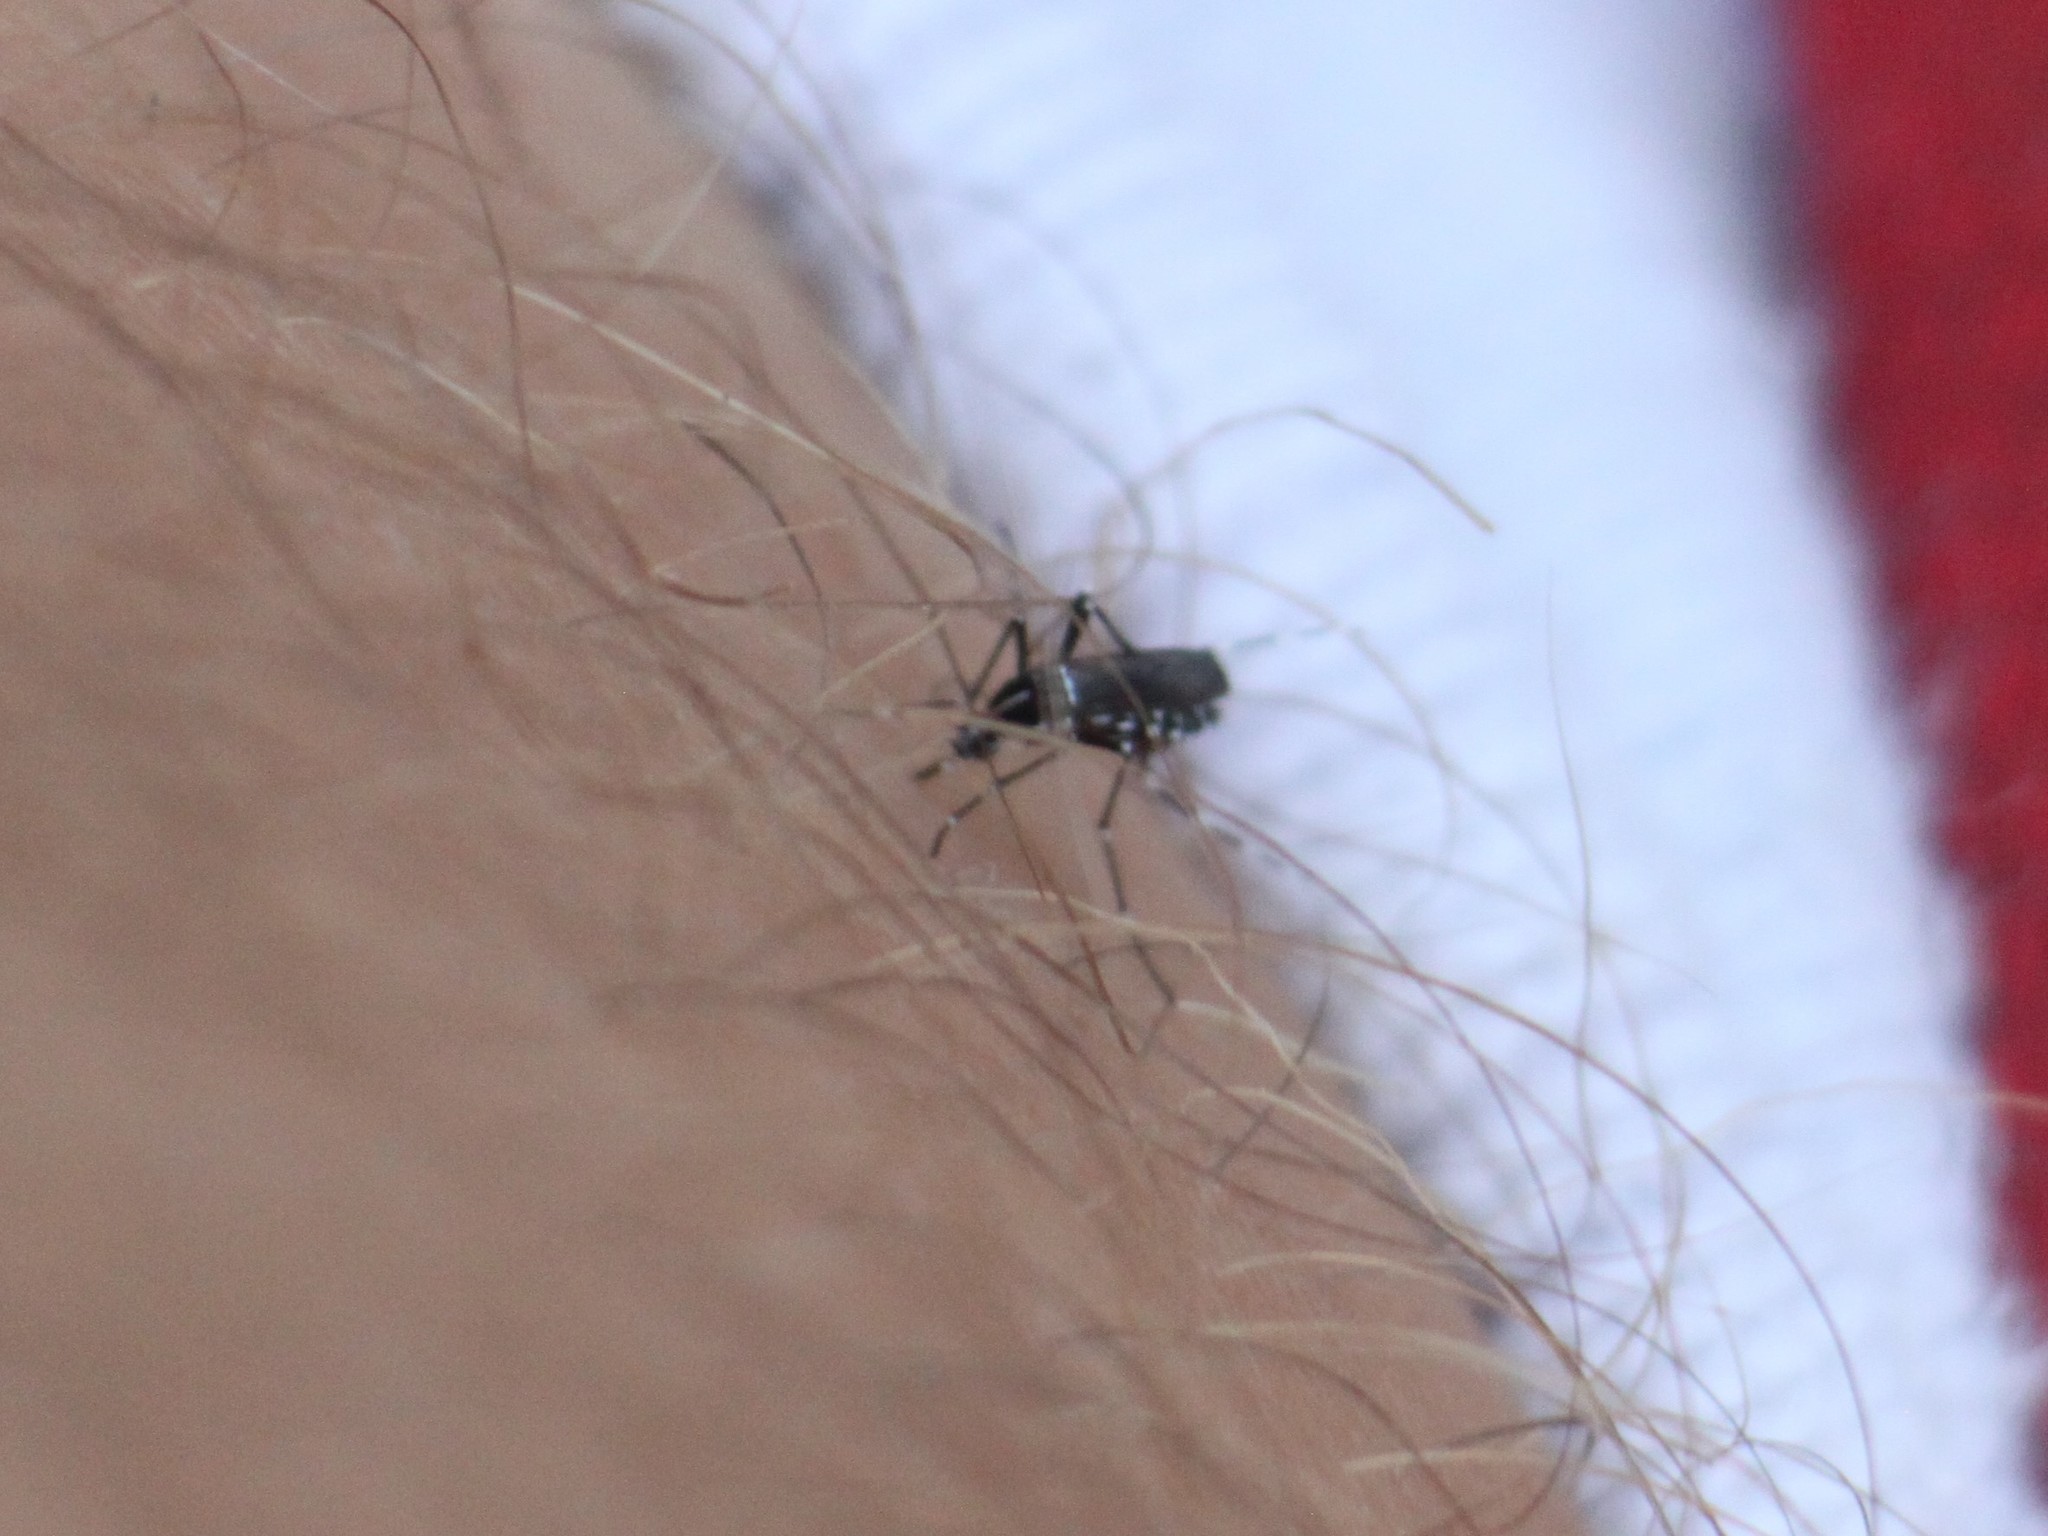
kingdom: Animalia
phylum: Arthropoda
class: Insecta
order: Diptera
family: Culicidae
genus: Aedes
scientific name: Aedes albopictus
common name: Tiger mosquito
